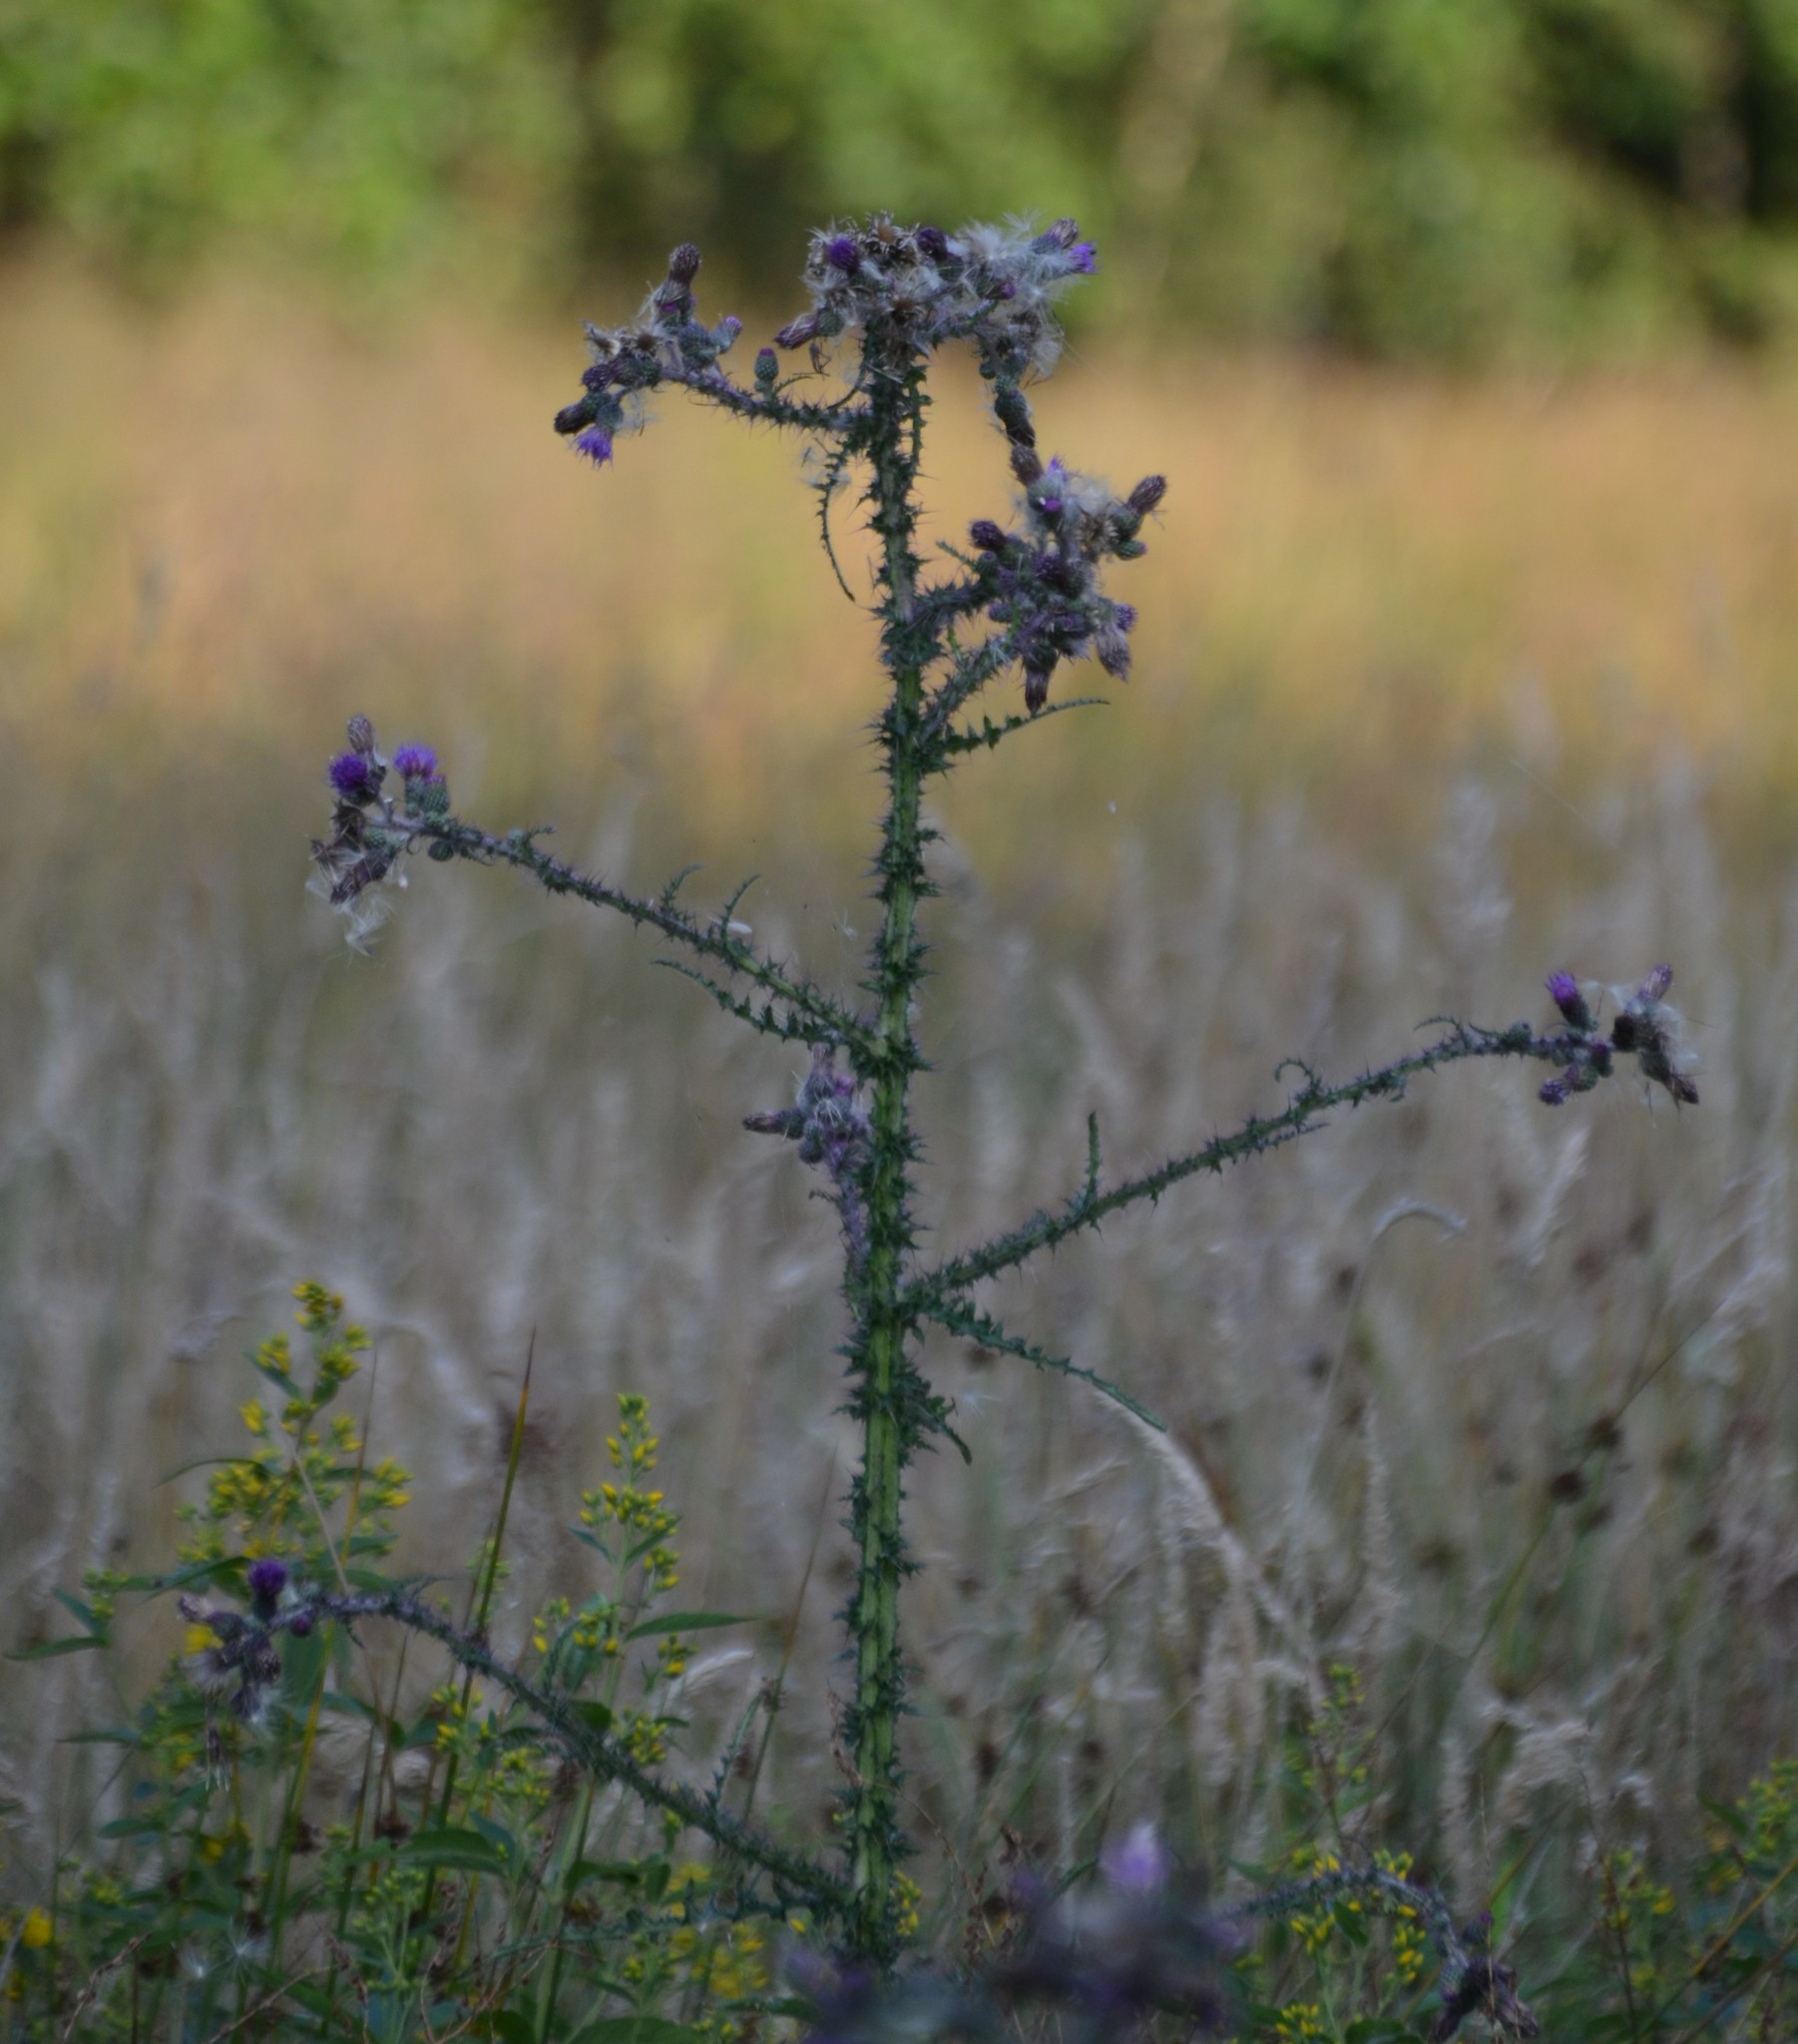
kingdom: Plantae
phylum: Tracheophyta
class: Magnoliopsida
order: Asterales
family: Asteraceae
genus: Cirsium
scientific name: Cirsium palustre
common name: Marsh thistle
